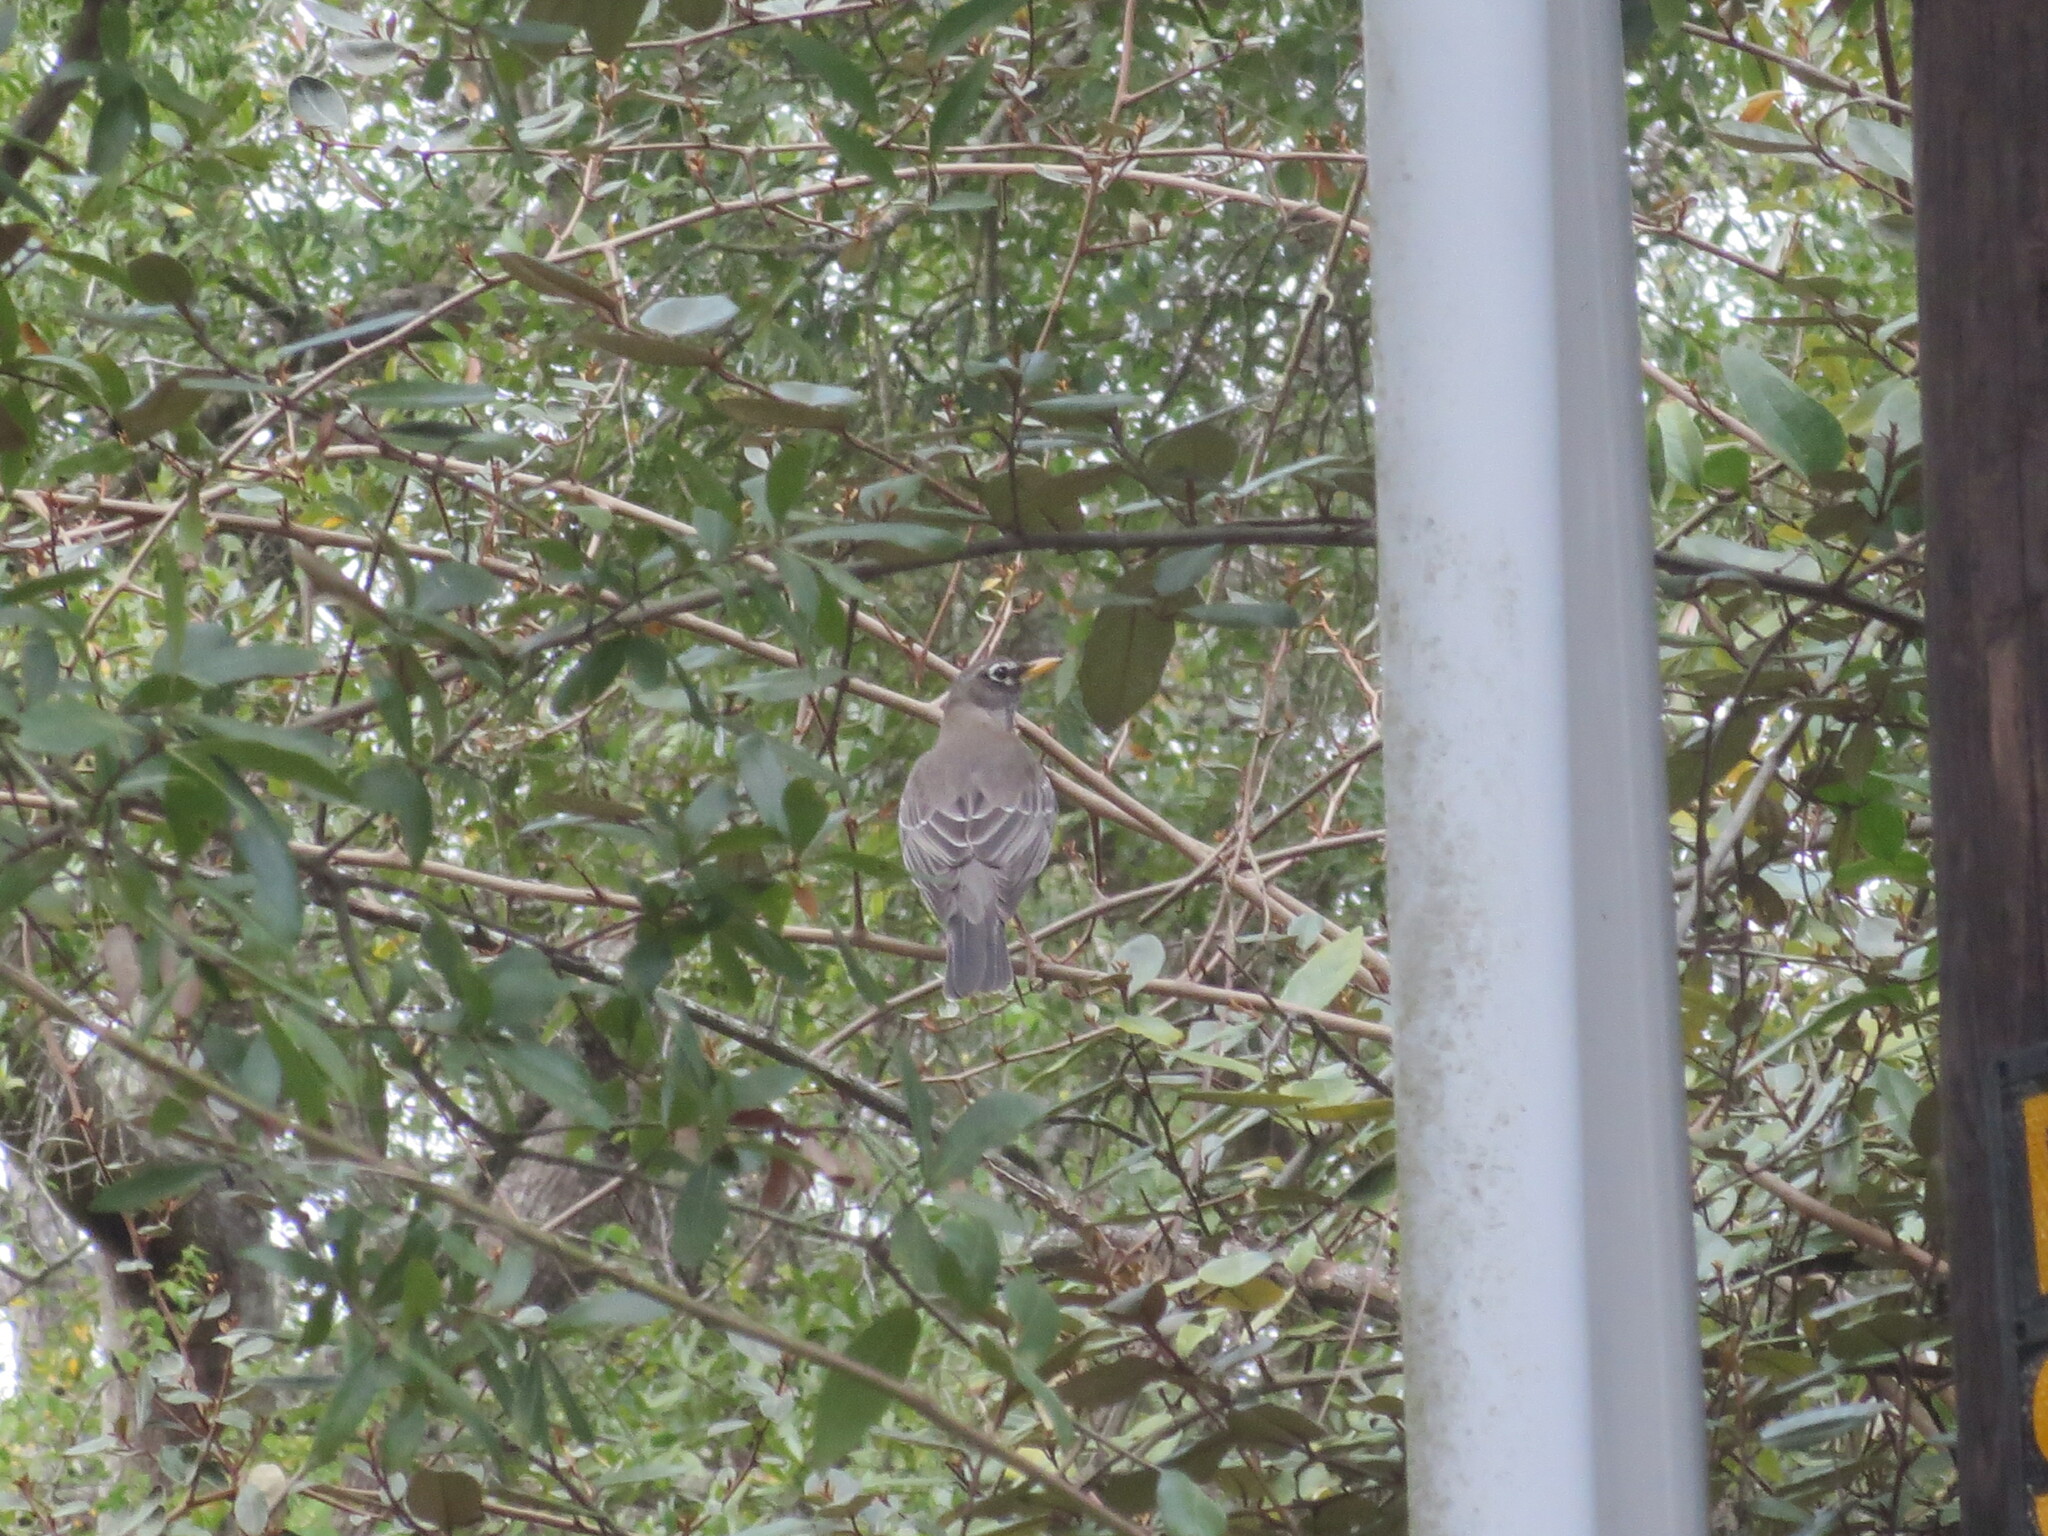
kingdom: Animalia
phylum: Chordata
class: Aves
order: Passeriformes
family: Turdidae
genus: Turdus
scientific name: Turdus migratorius
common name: American robin
